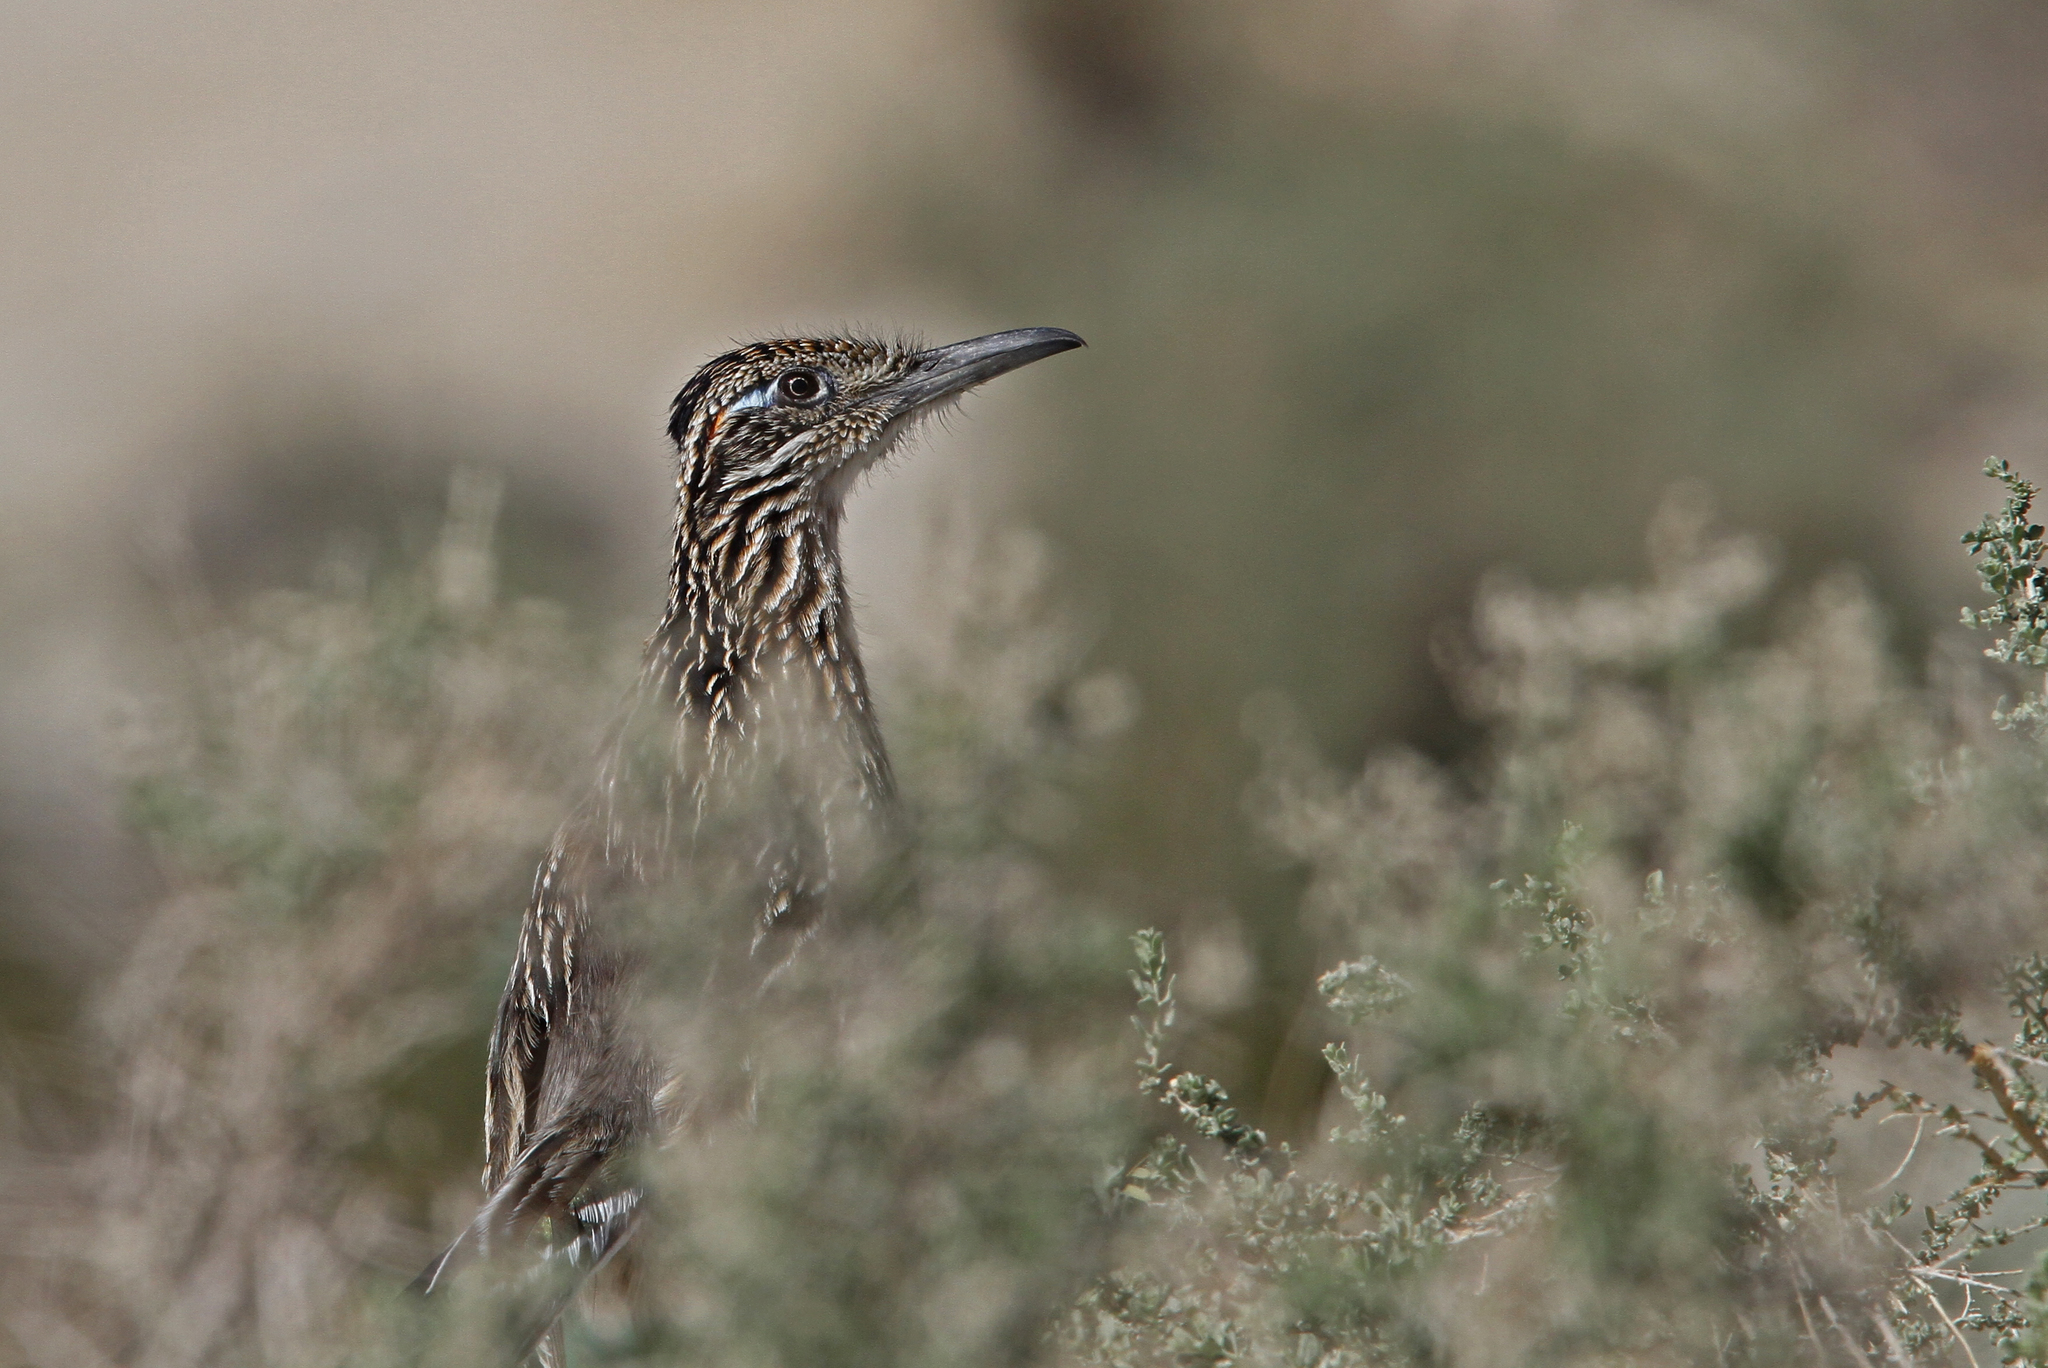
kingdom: Animalia
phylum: Chordata
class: Aves
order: Cuculiformes
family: Cuculidae
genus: Geococcyx
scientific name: Geococcyx californianus
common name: Greater roadrunner
